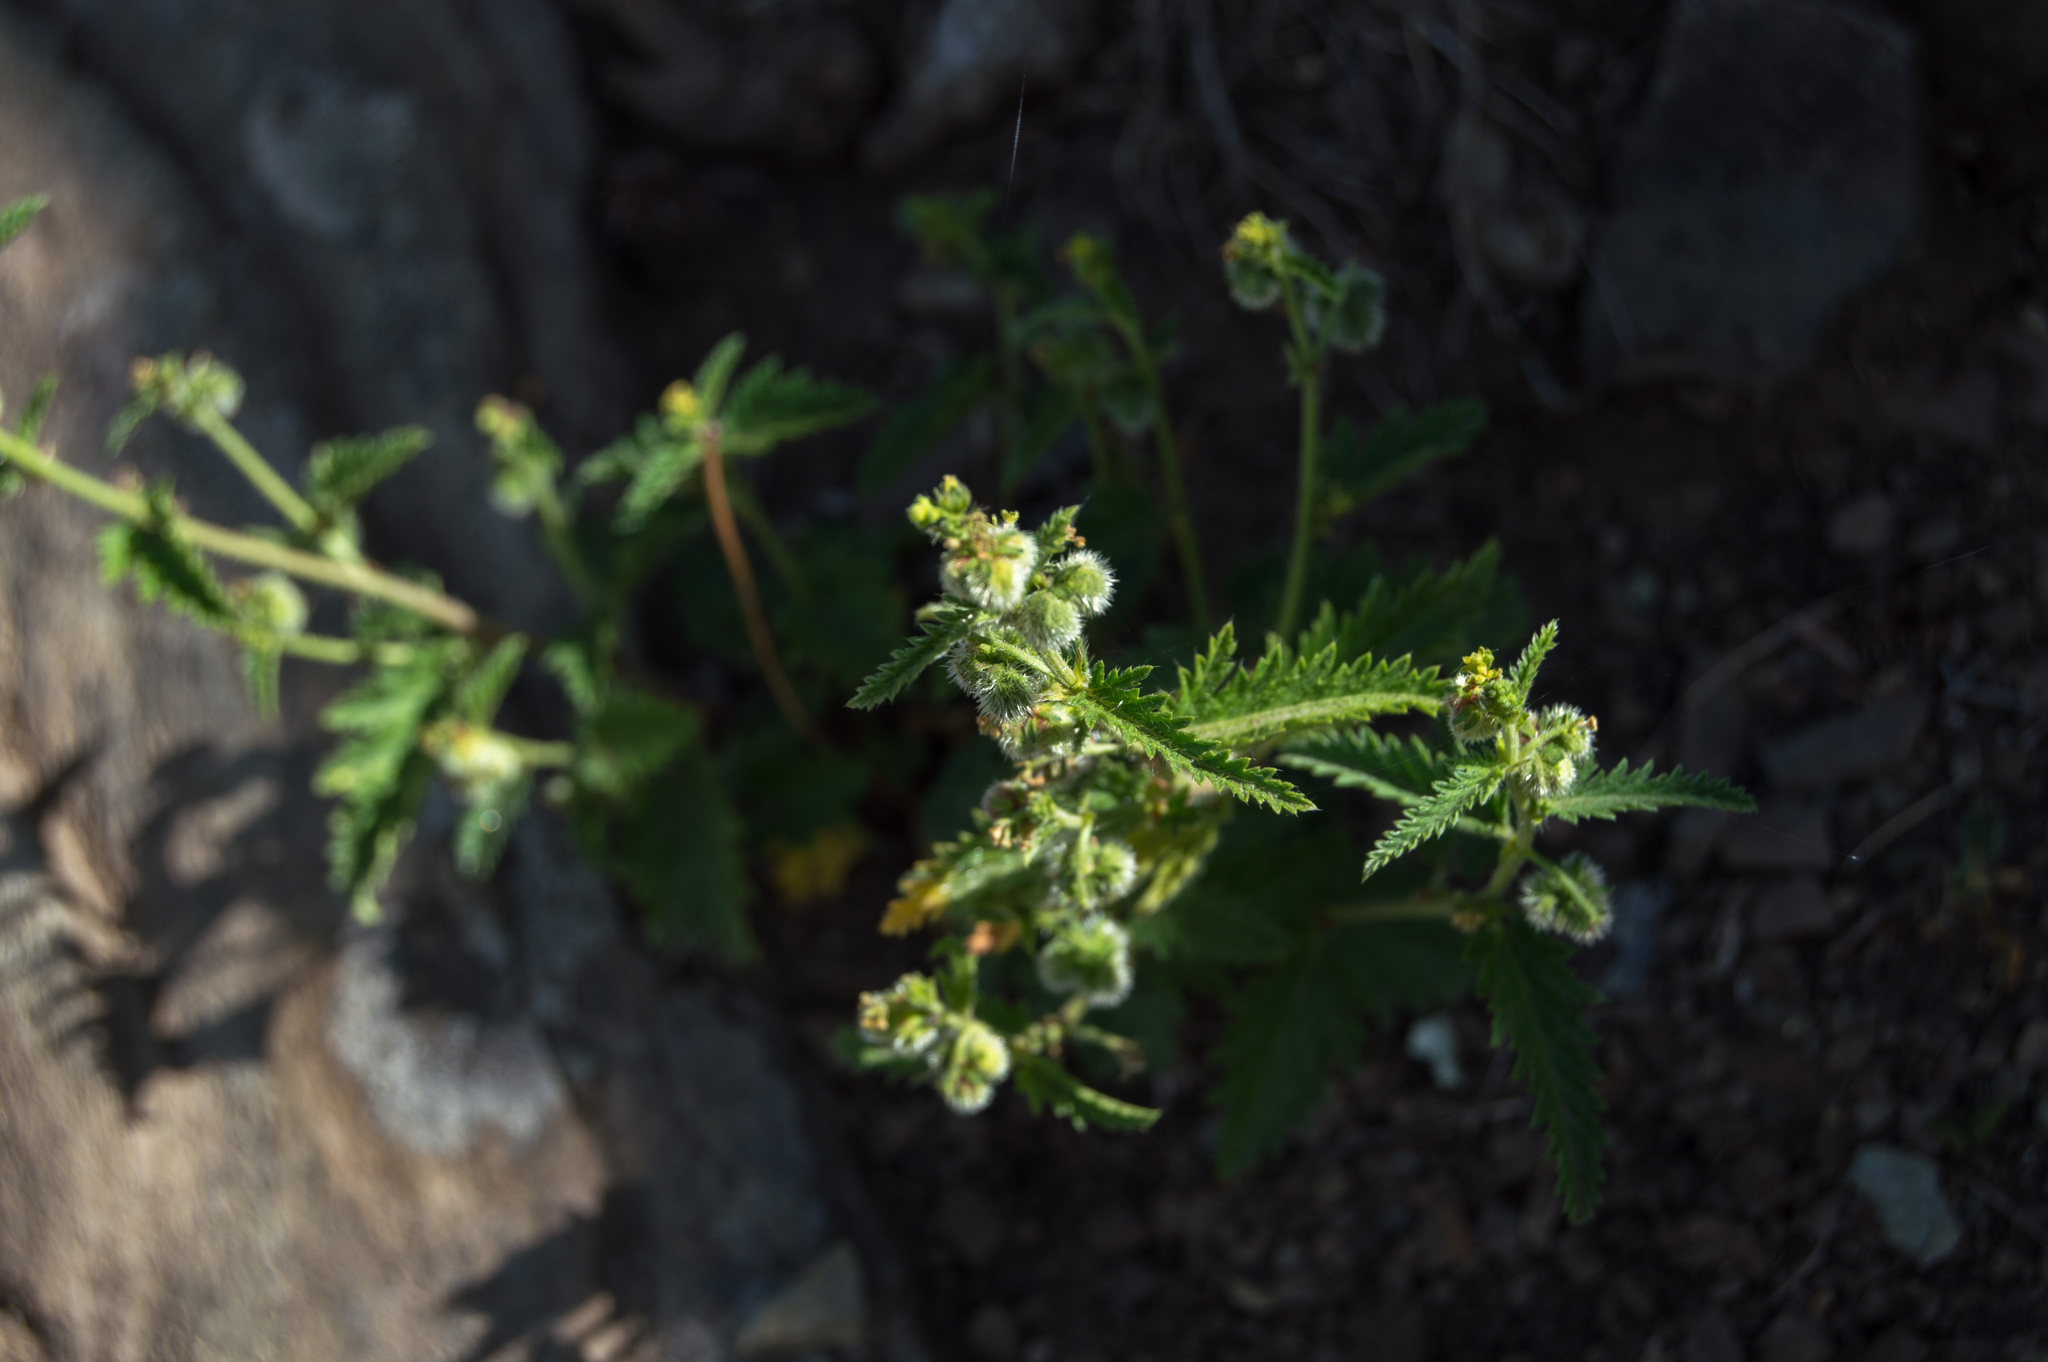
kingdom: Plantae
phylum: Tracheophyta
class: Magnoliopsida
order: Malpighiales
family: Euphorbiaceae
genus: Tragia
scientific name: Tragia geraniifolia
